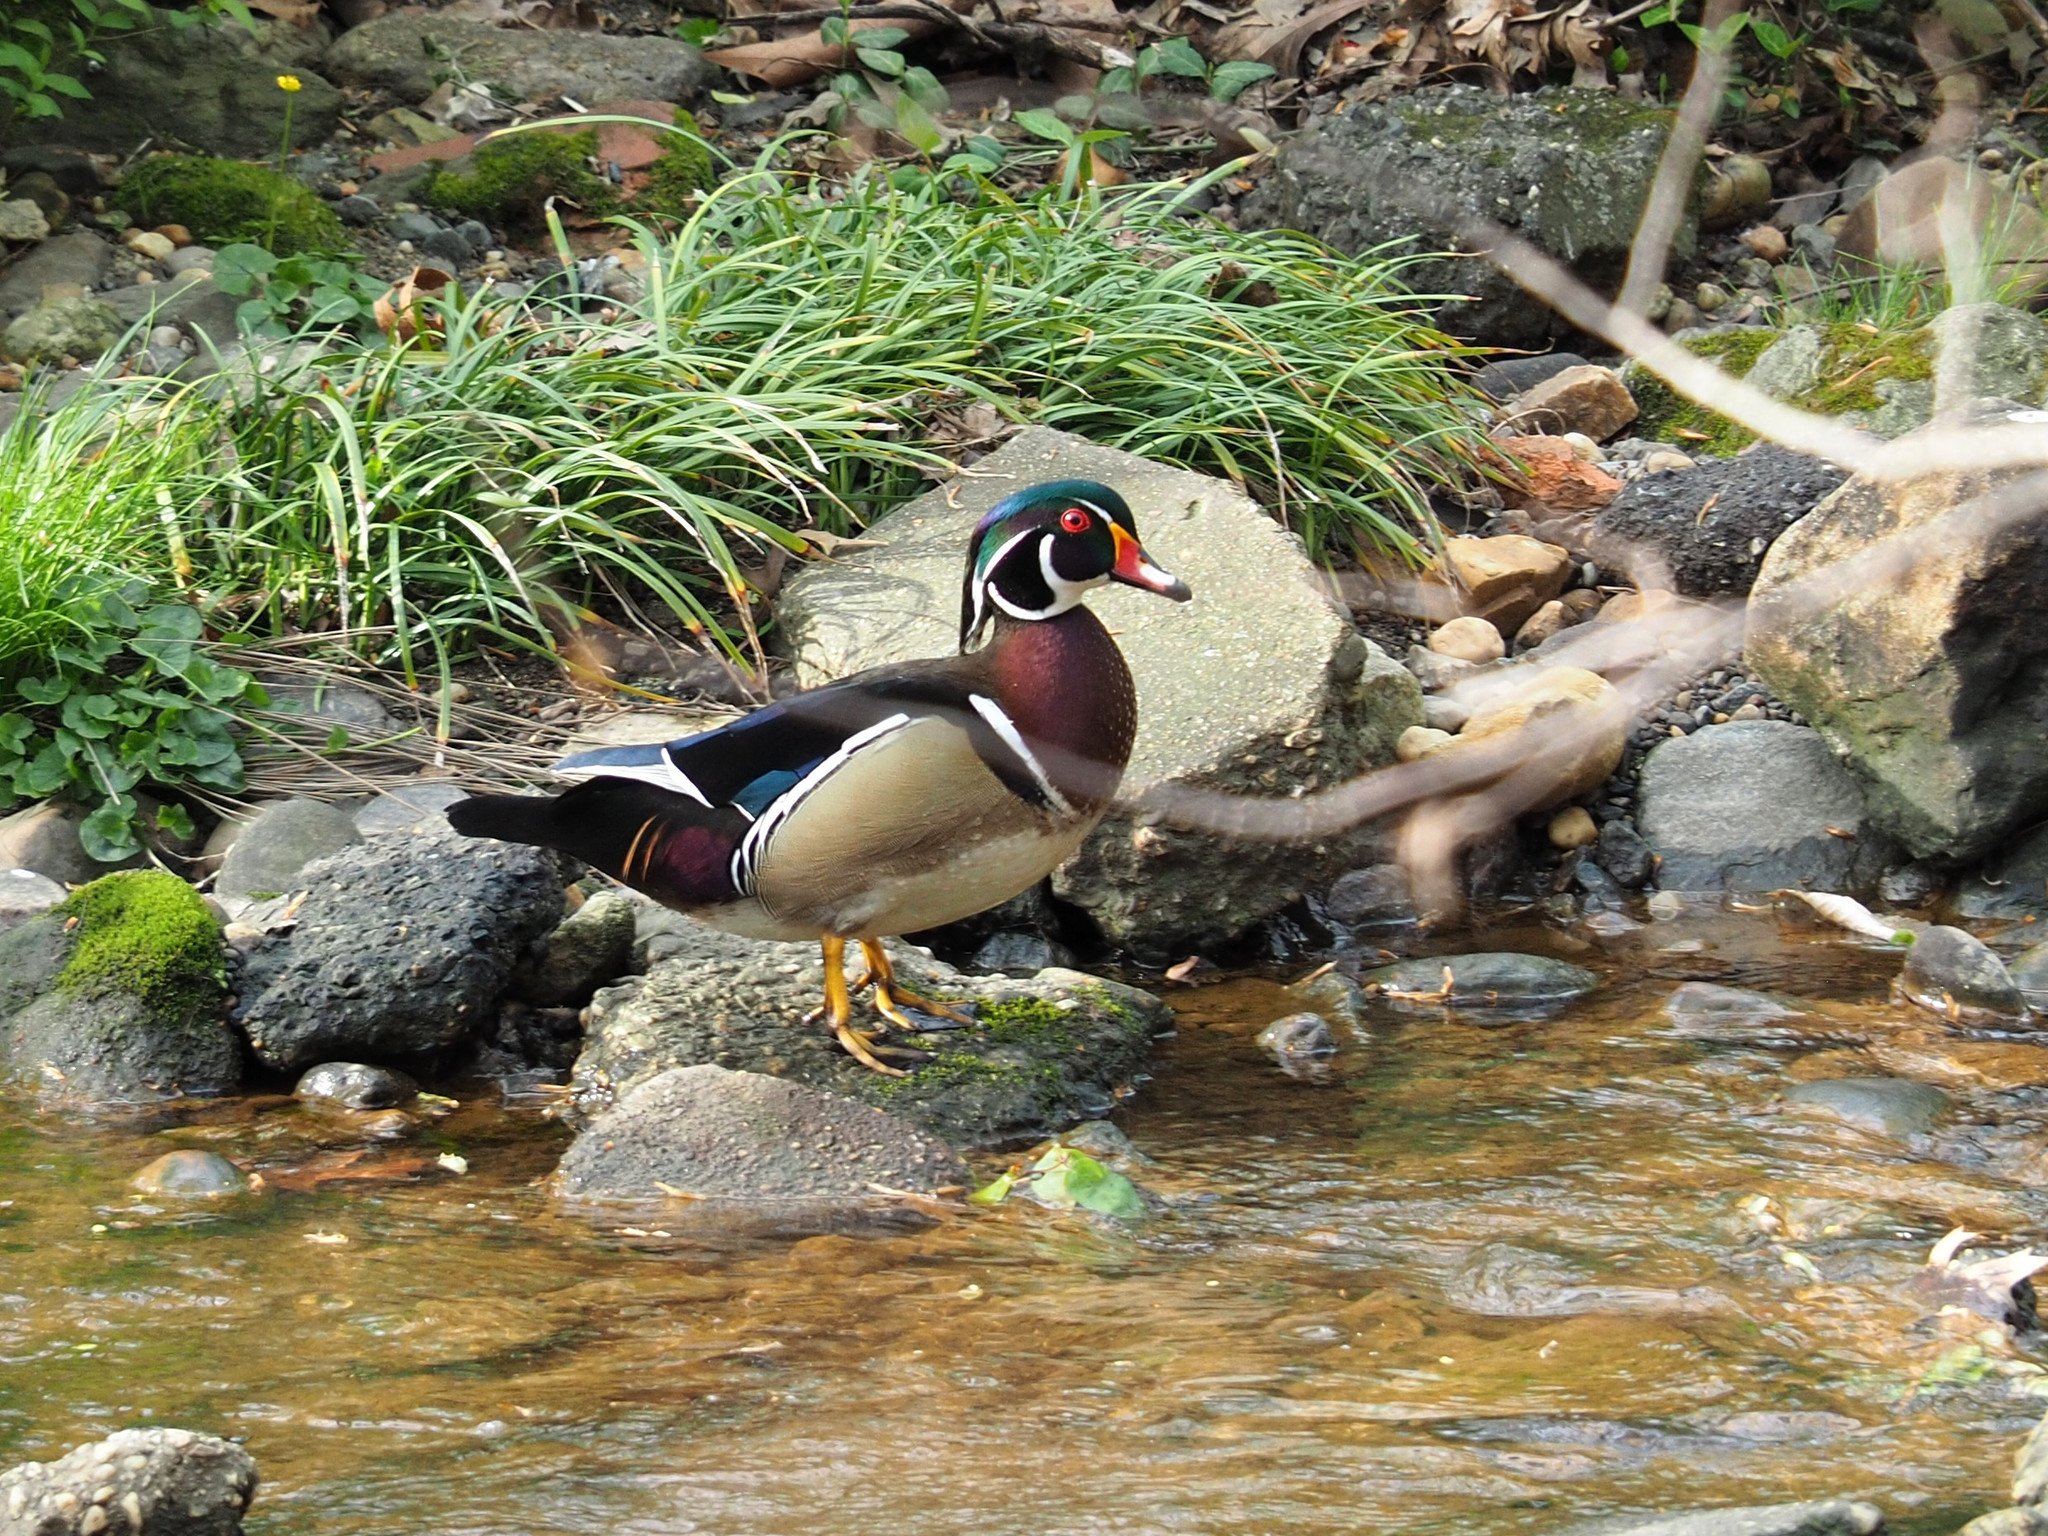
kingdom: Animalia
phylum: Chordata
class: Aves
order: Anseriformes
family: Anatidae
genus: Aix
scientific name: Aix sponsa
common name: Wood duck
